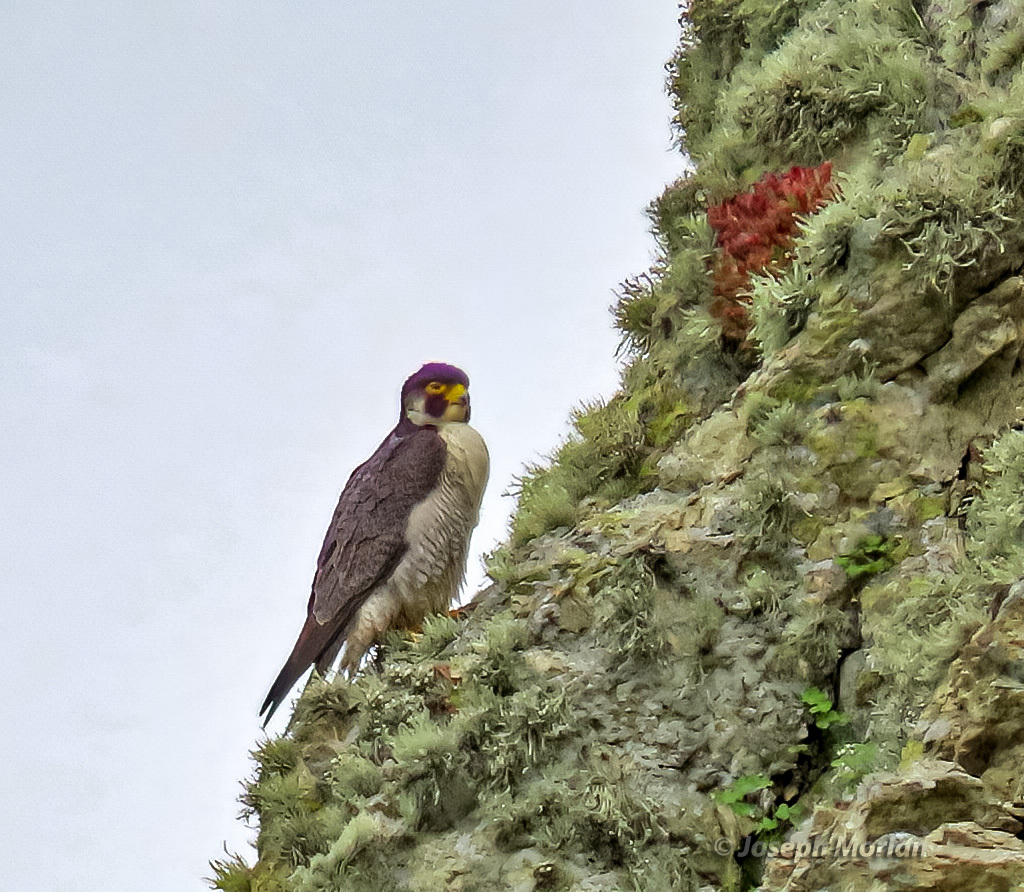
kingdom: Animalia
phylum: Chordata
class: Aves
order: Falconiformes
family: Falconidae
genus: Falco
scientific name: Falco peregrinus
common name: Peregrine falcon
